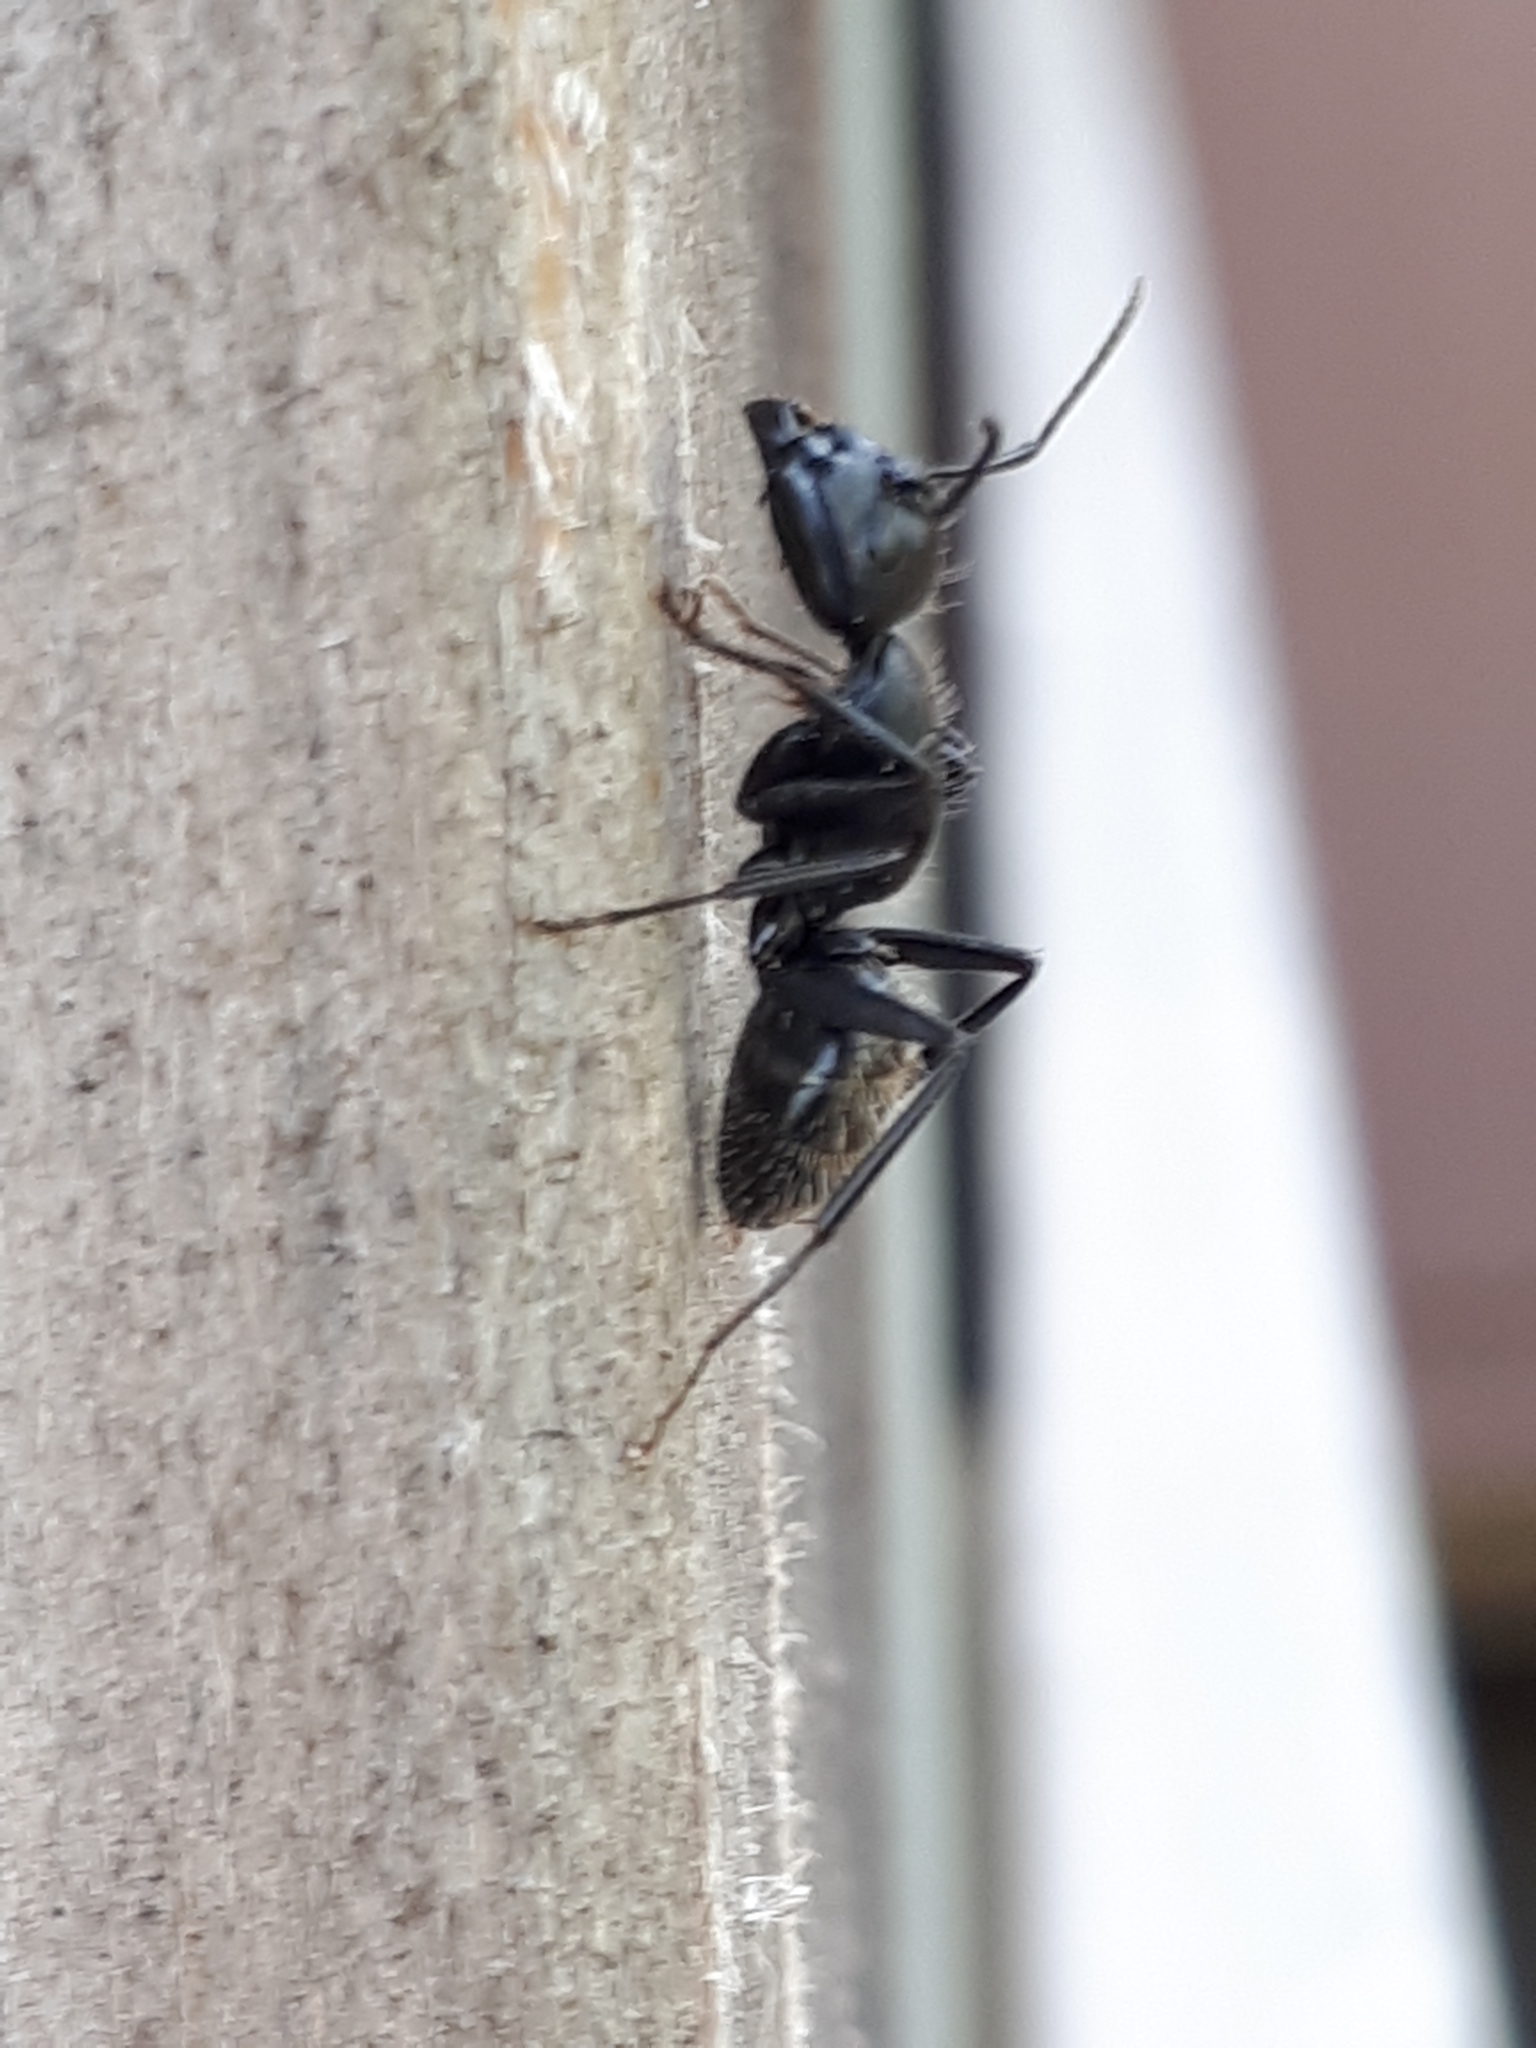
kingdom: Animalia
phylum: Arthropoda
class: Insecta
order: Hymenoptera
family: Formicidae
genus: Camponotus
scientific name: Camponotus vagus
